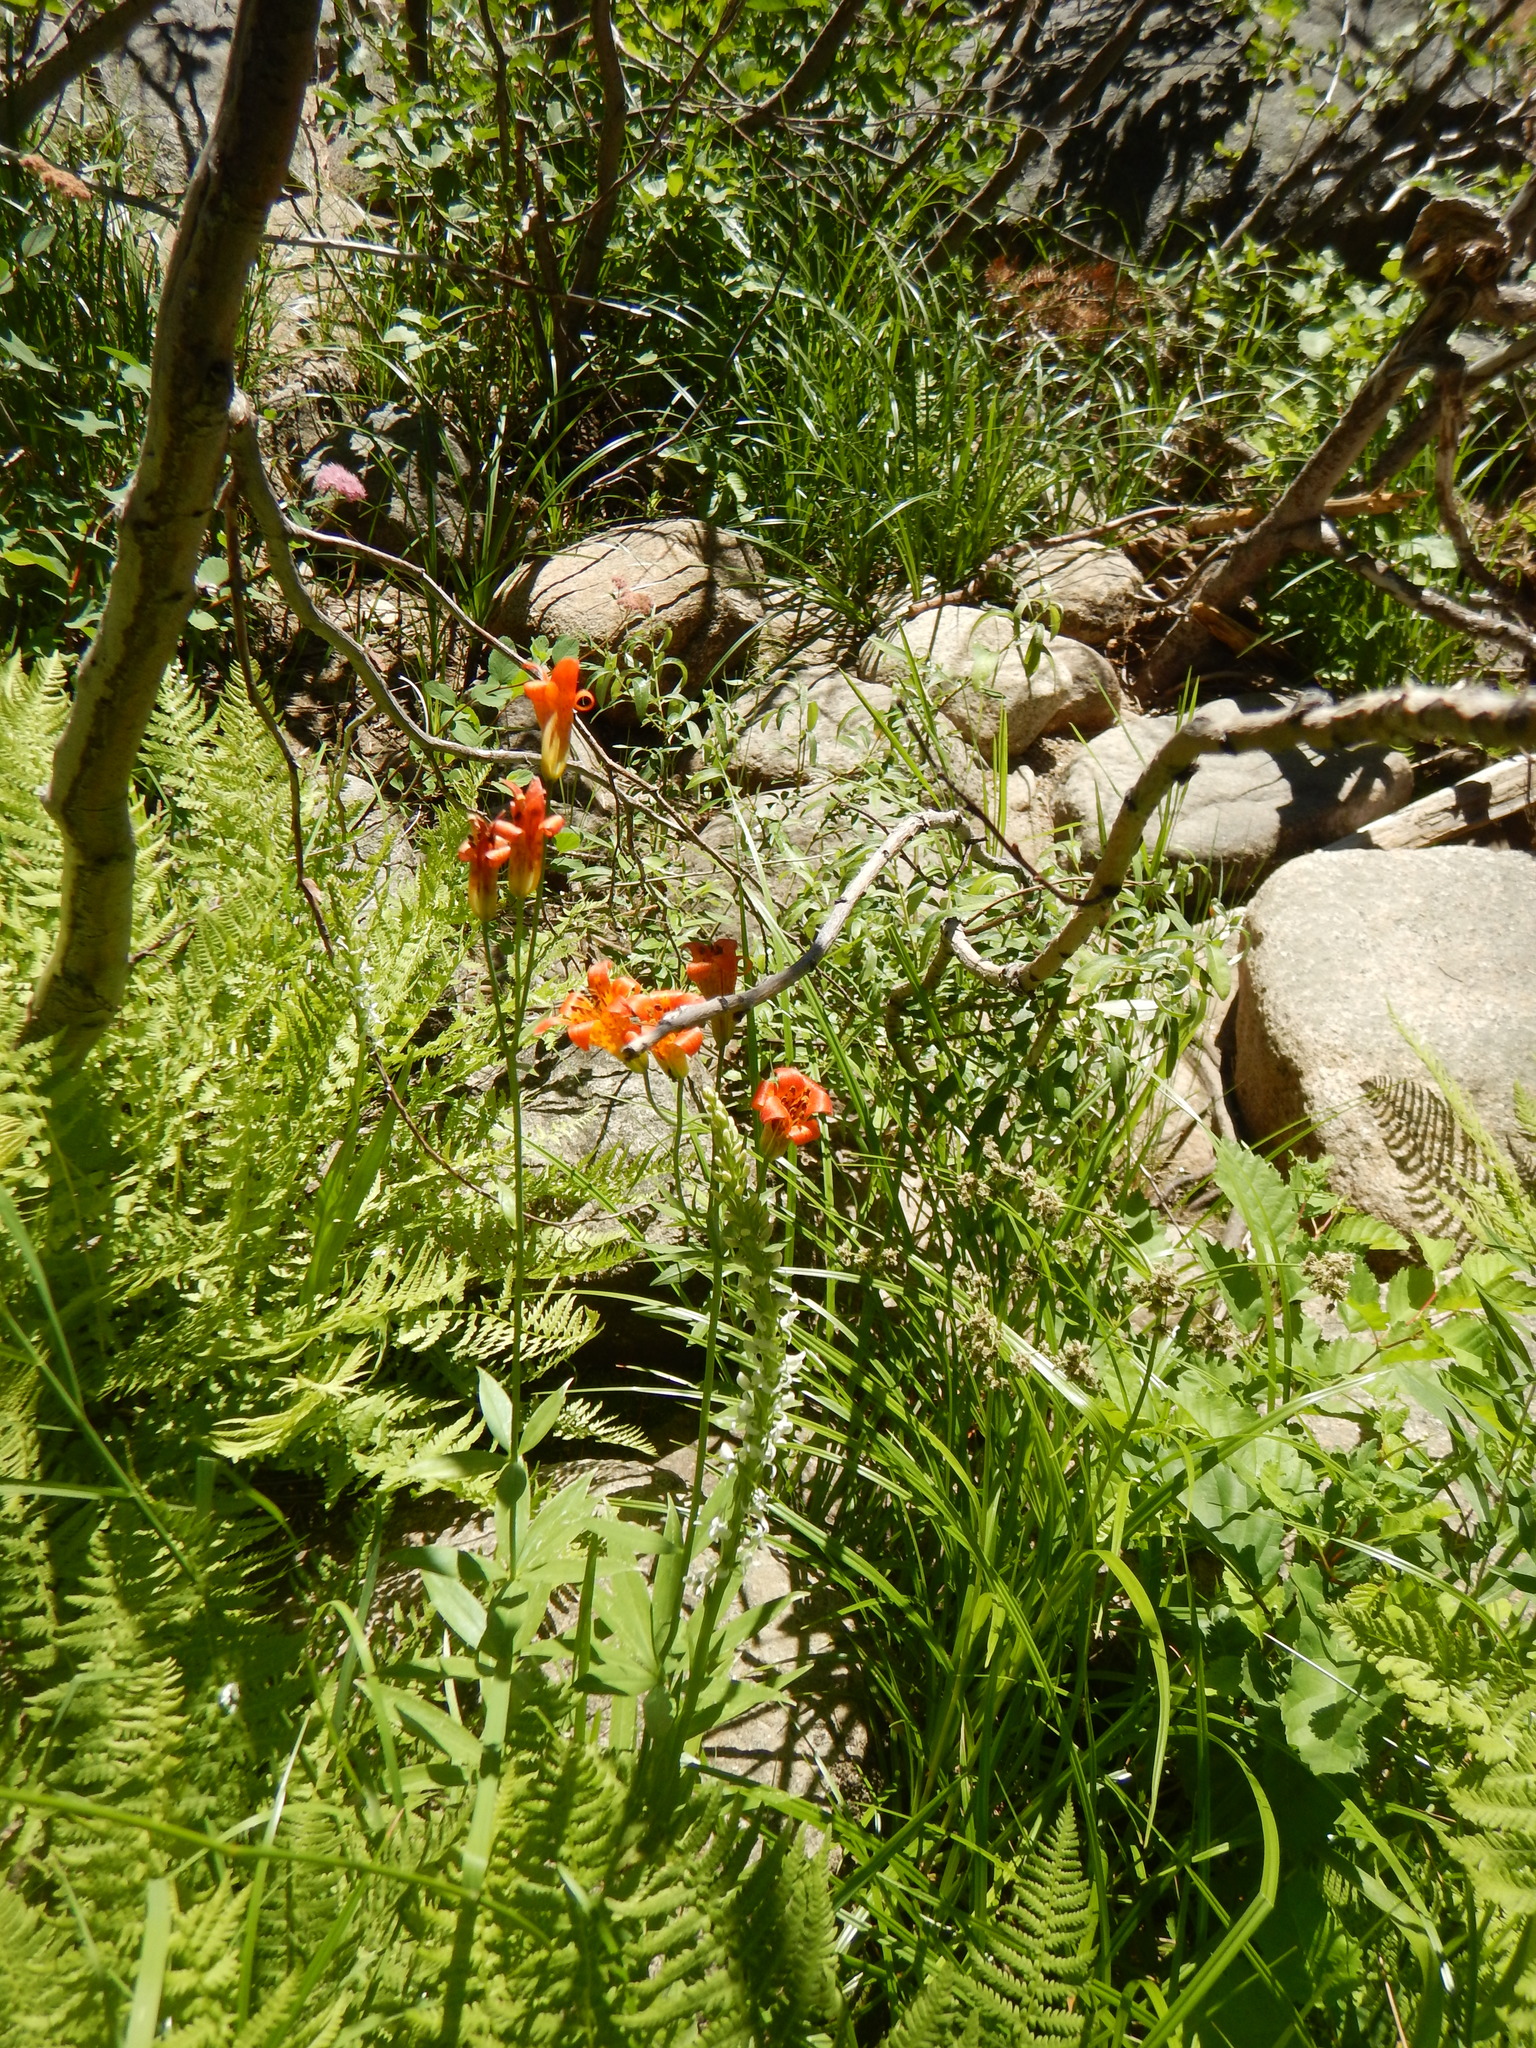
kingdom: Plantae
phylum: Tracheophyta
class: Liliopsida
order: Liliales
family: Liliaceae
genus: Lilium
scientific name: Lilium parvum
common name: Alpine lily
